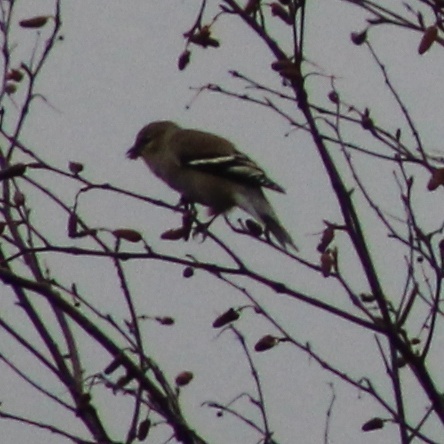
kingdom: Animalia
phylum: Chordata
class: Aves
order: Passeriformes
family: Fringillidae
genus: Spinus
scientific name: Spinus tristis
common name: American goldfinch
